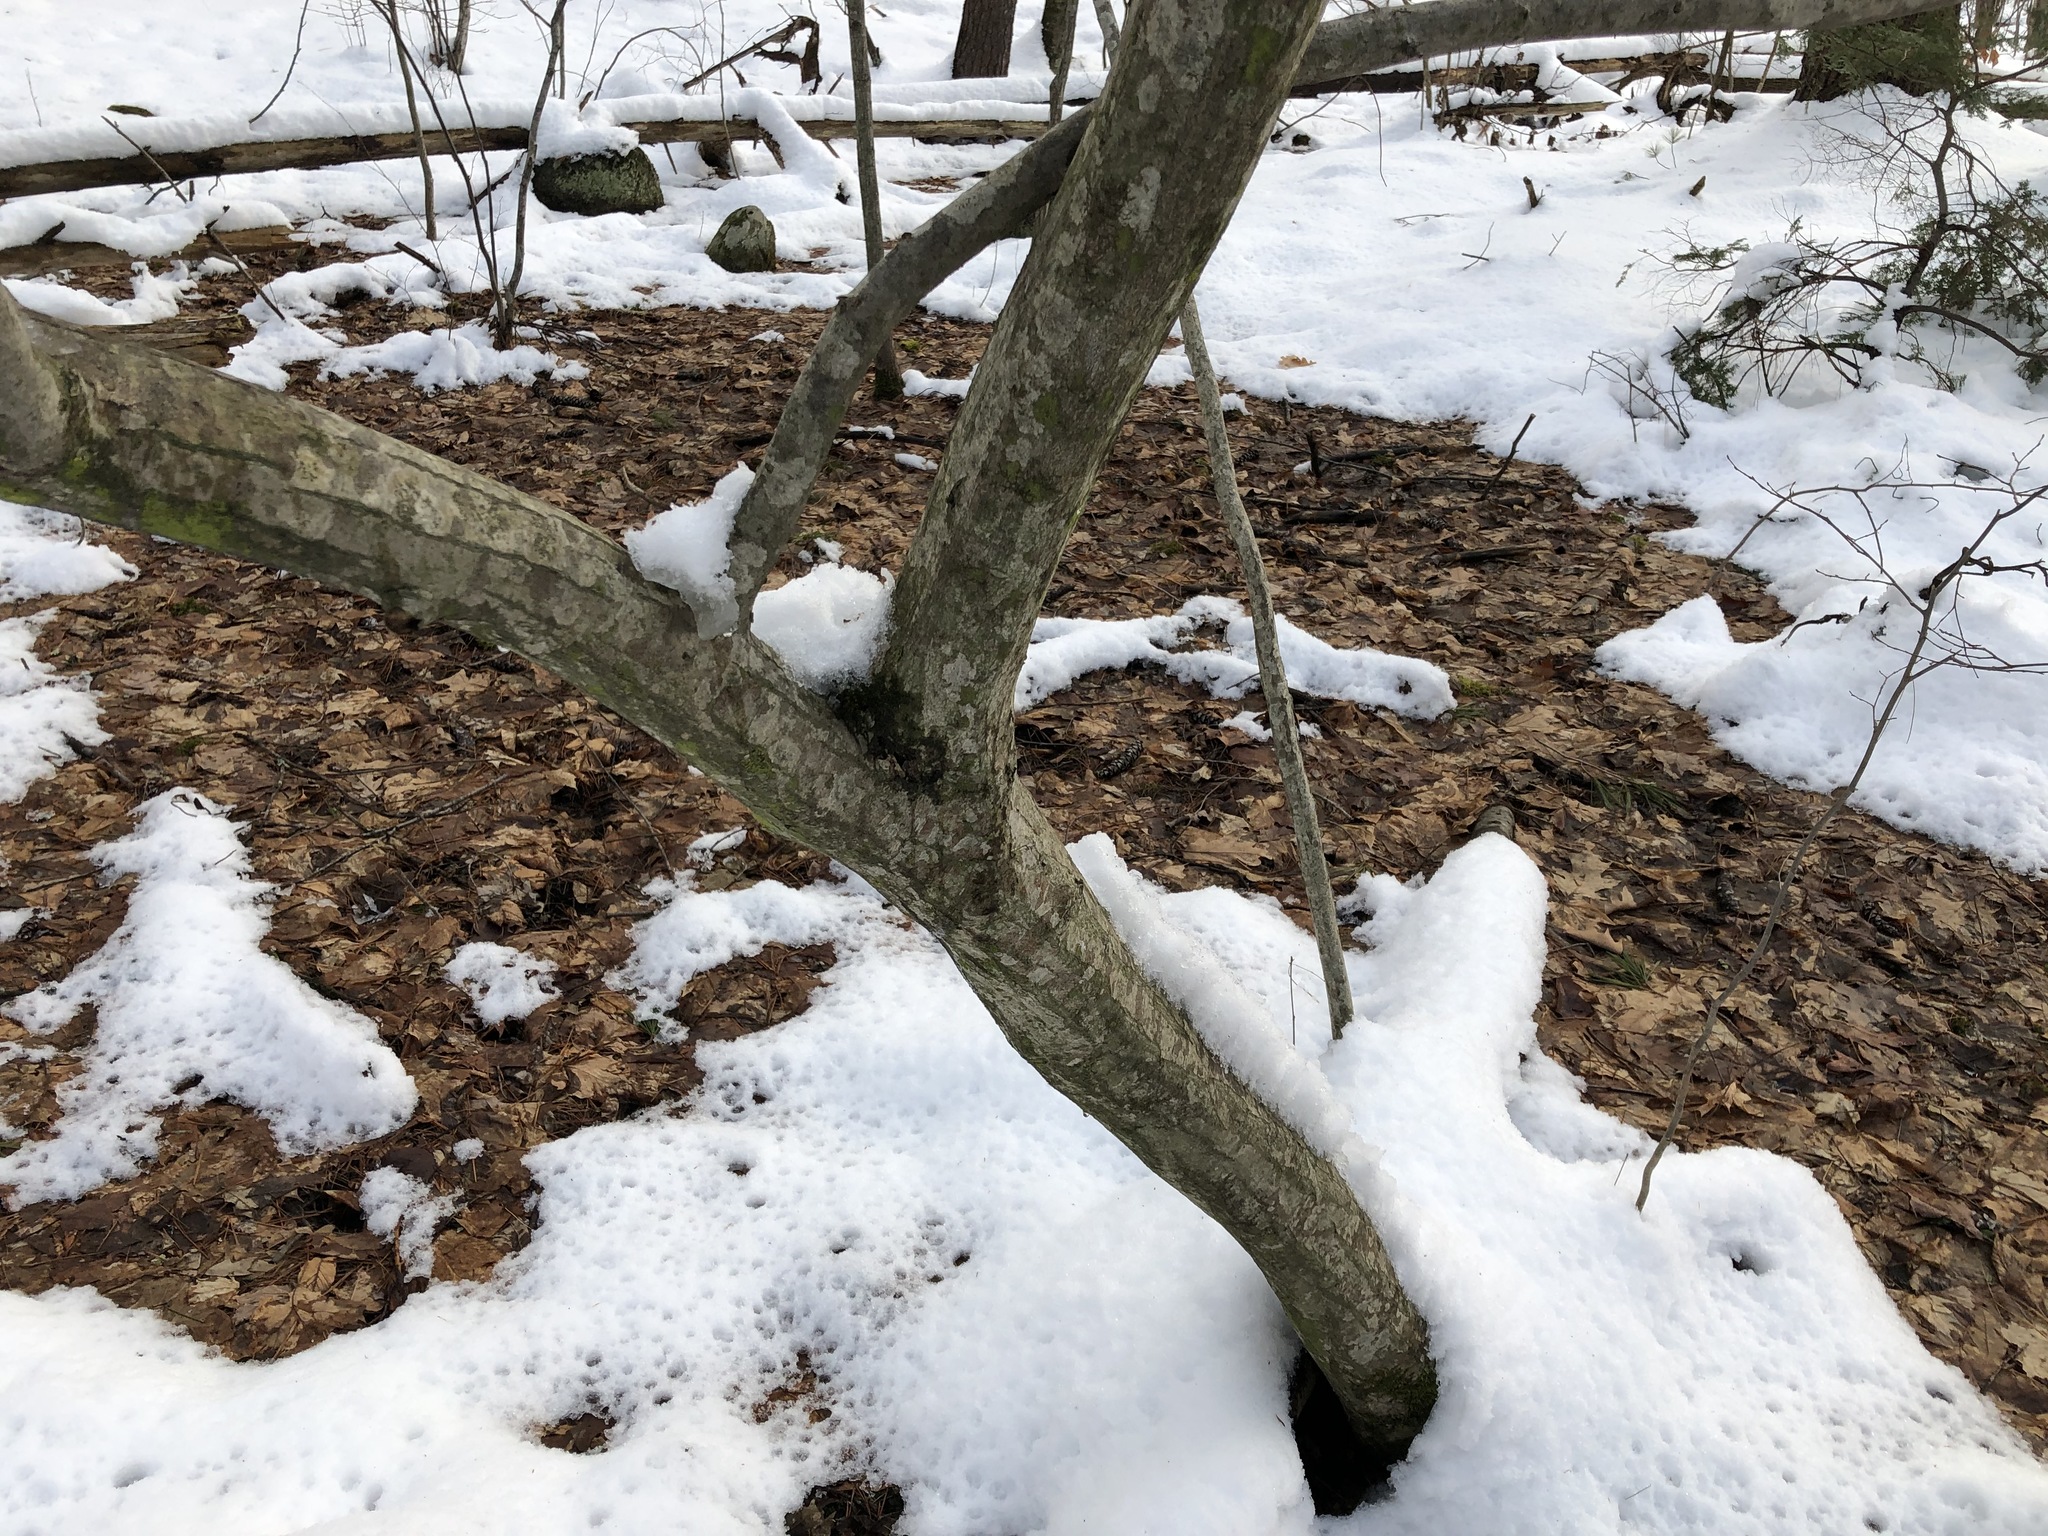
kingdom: Plantae
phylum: Tracheophyta
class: Magnoliopsida
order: Fagales
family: Betulaceae
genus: Carpinus
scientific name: Carpinus caroliniana
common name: American hornbeam
